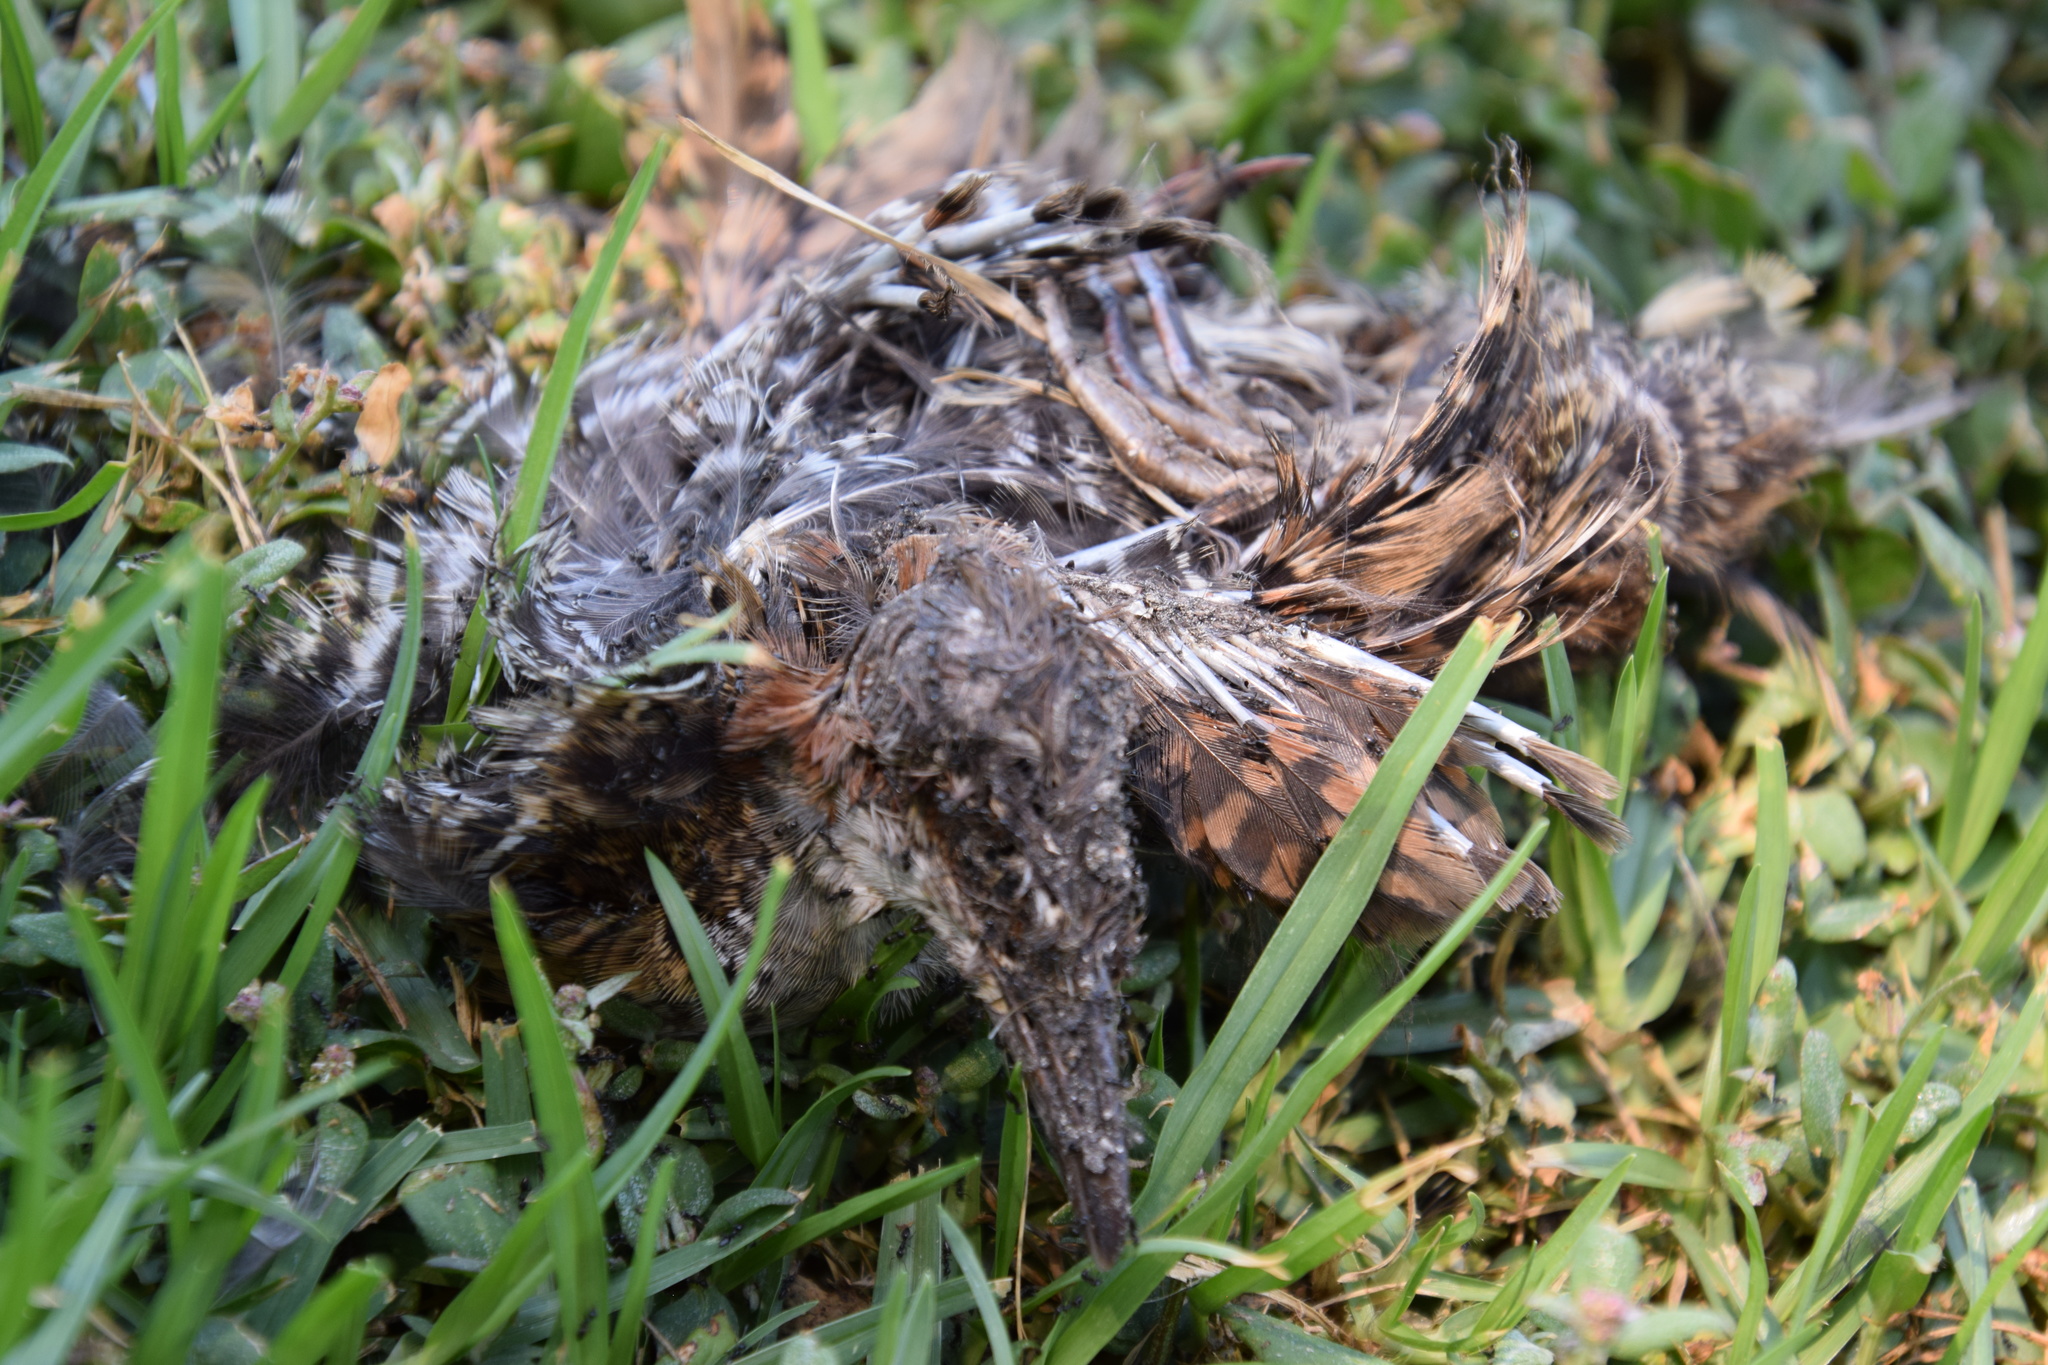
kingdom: Animalia
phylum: Chordata
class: Aves
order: Gruiformes
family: Rallidae
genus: Gallirallus
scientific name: Gallirallus philippensis
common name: Buff-banded rail
